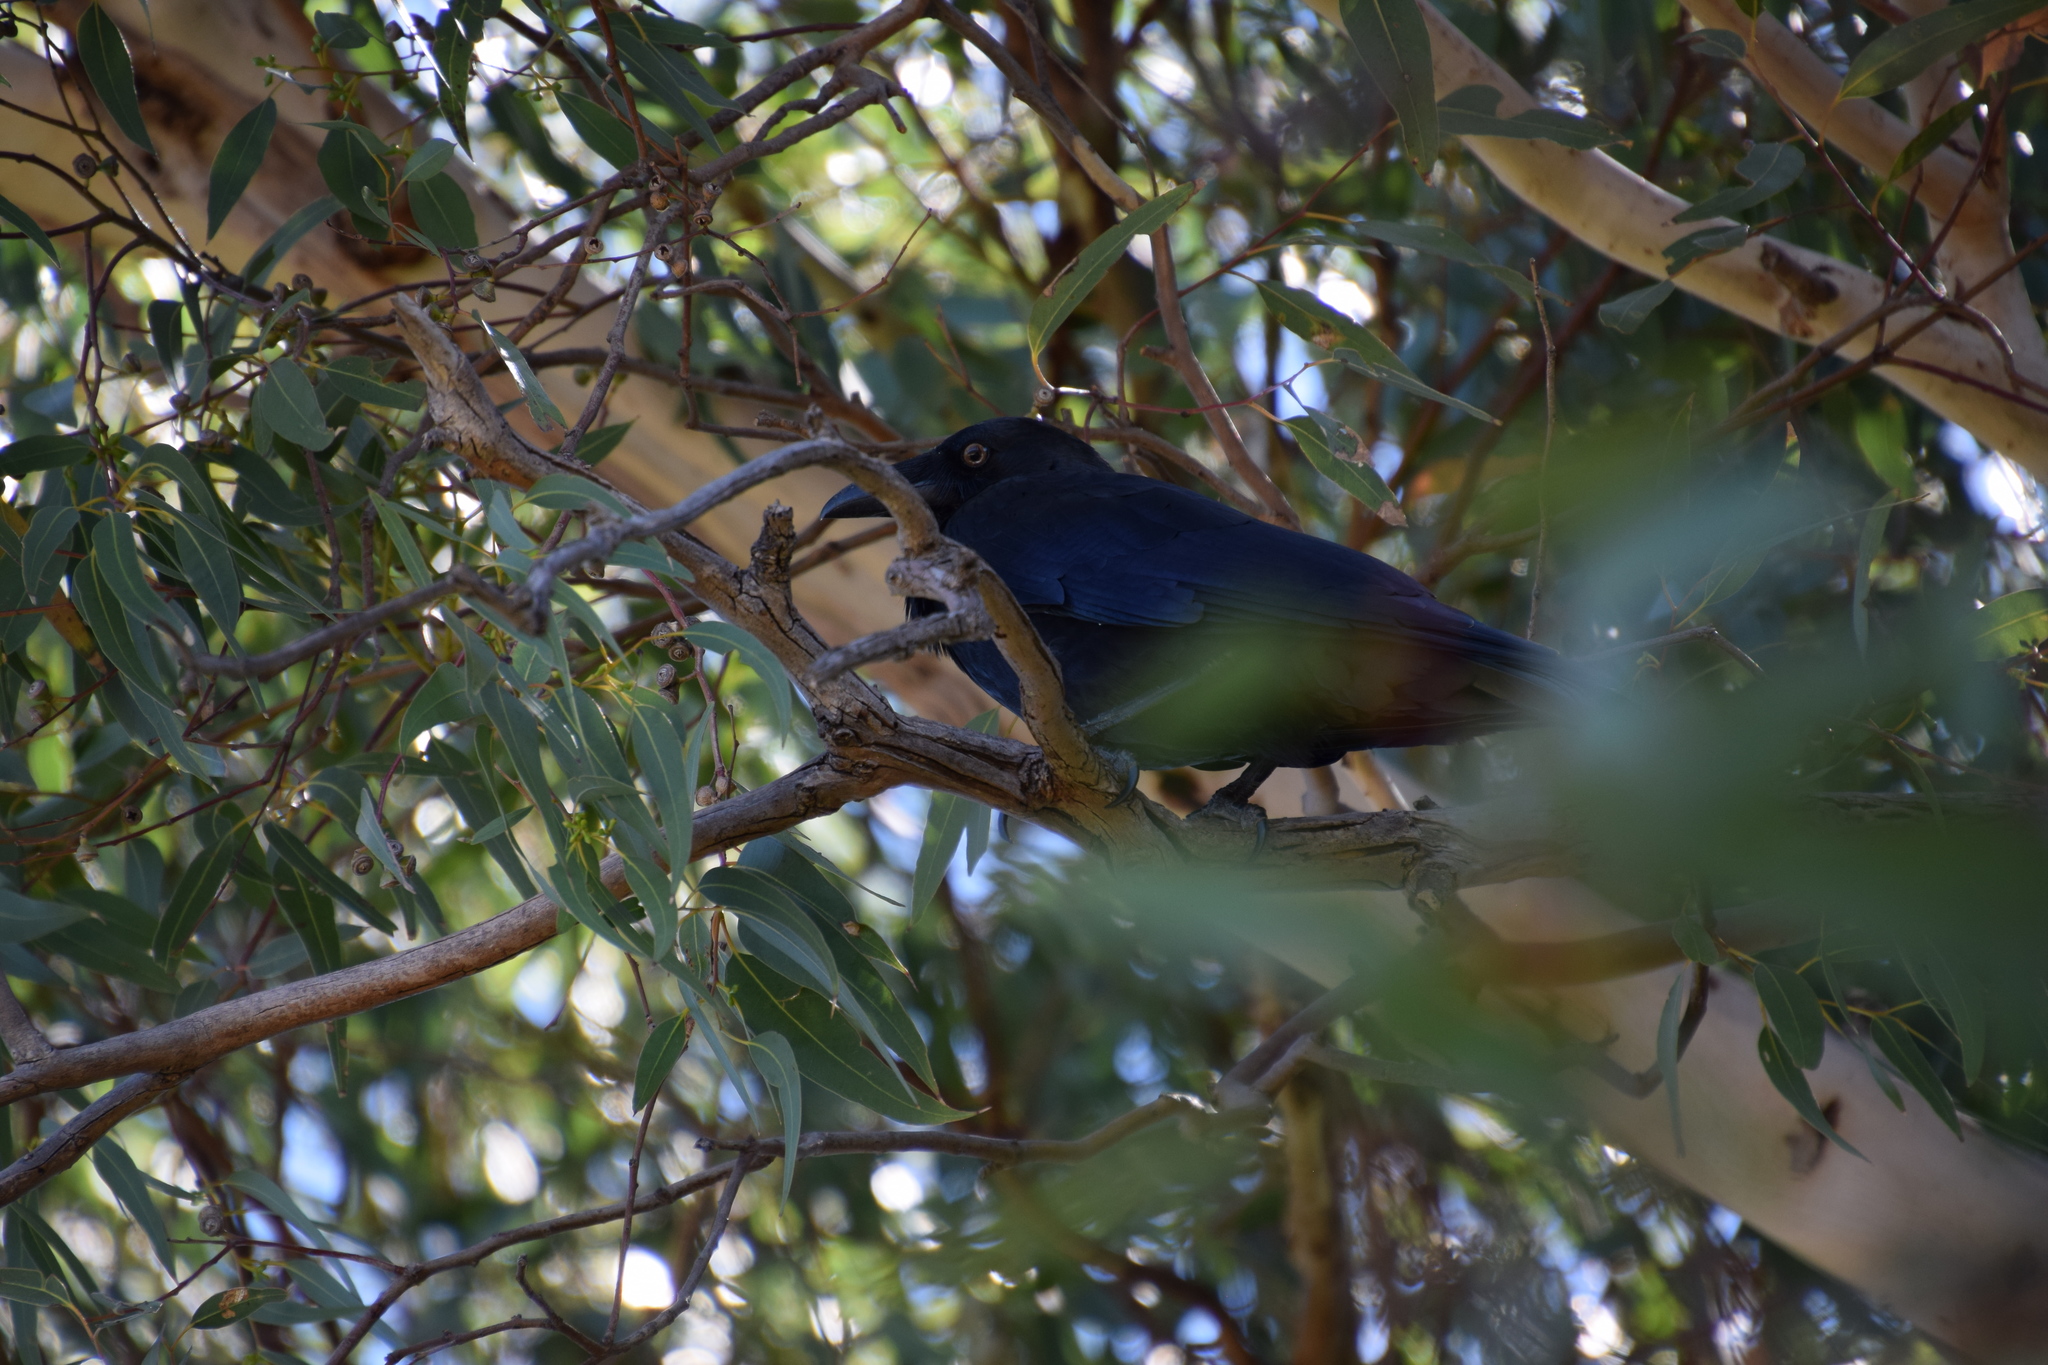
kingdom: Animalia
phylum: Chordata
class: Aves
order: Passeriformes
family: Corvidae
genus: Corvus
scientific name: Corvus coronoides
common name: Australian raven
